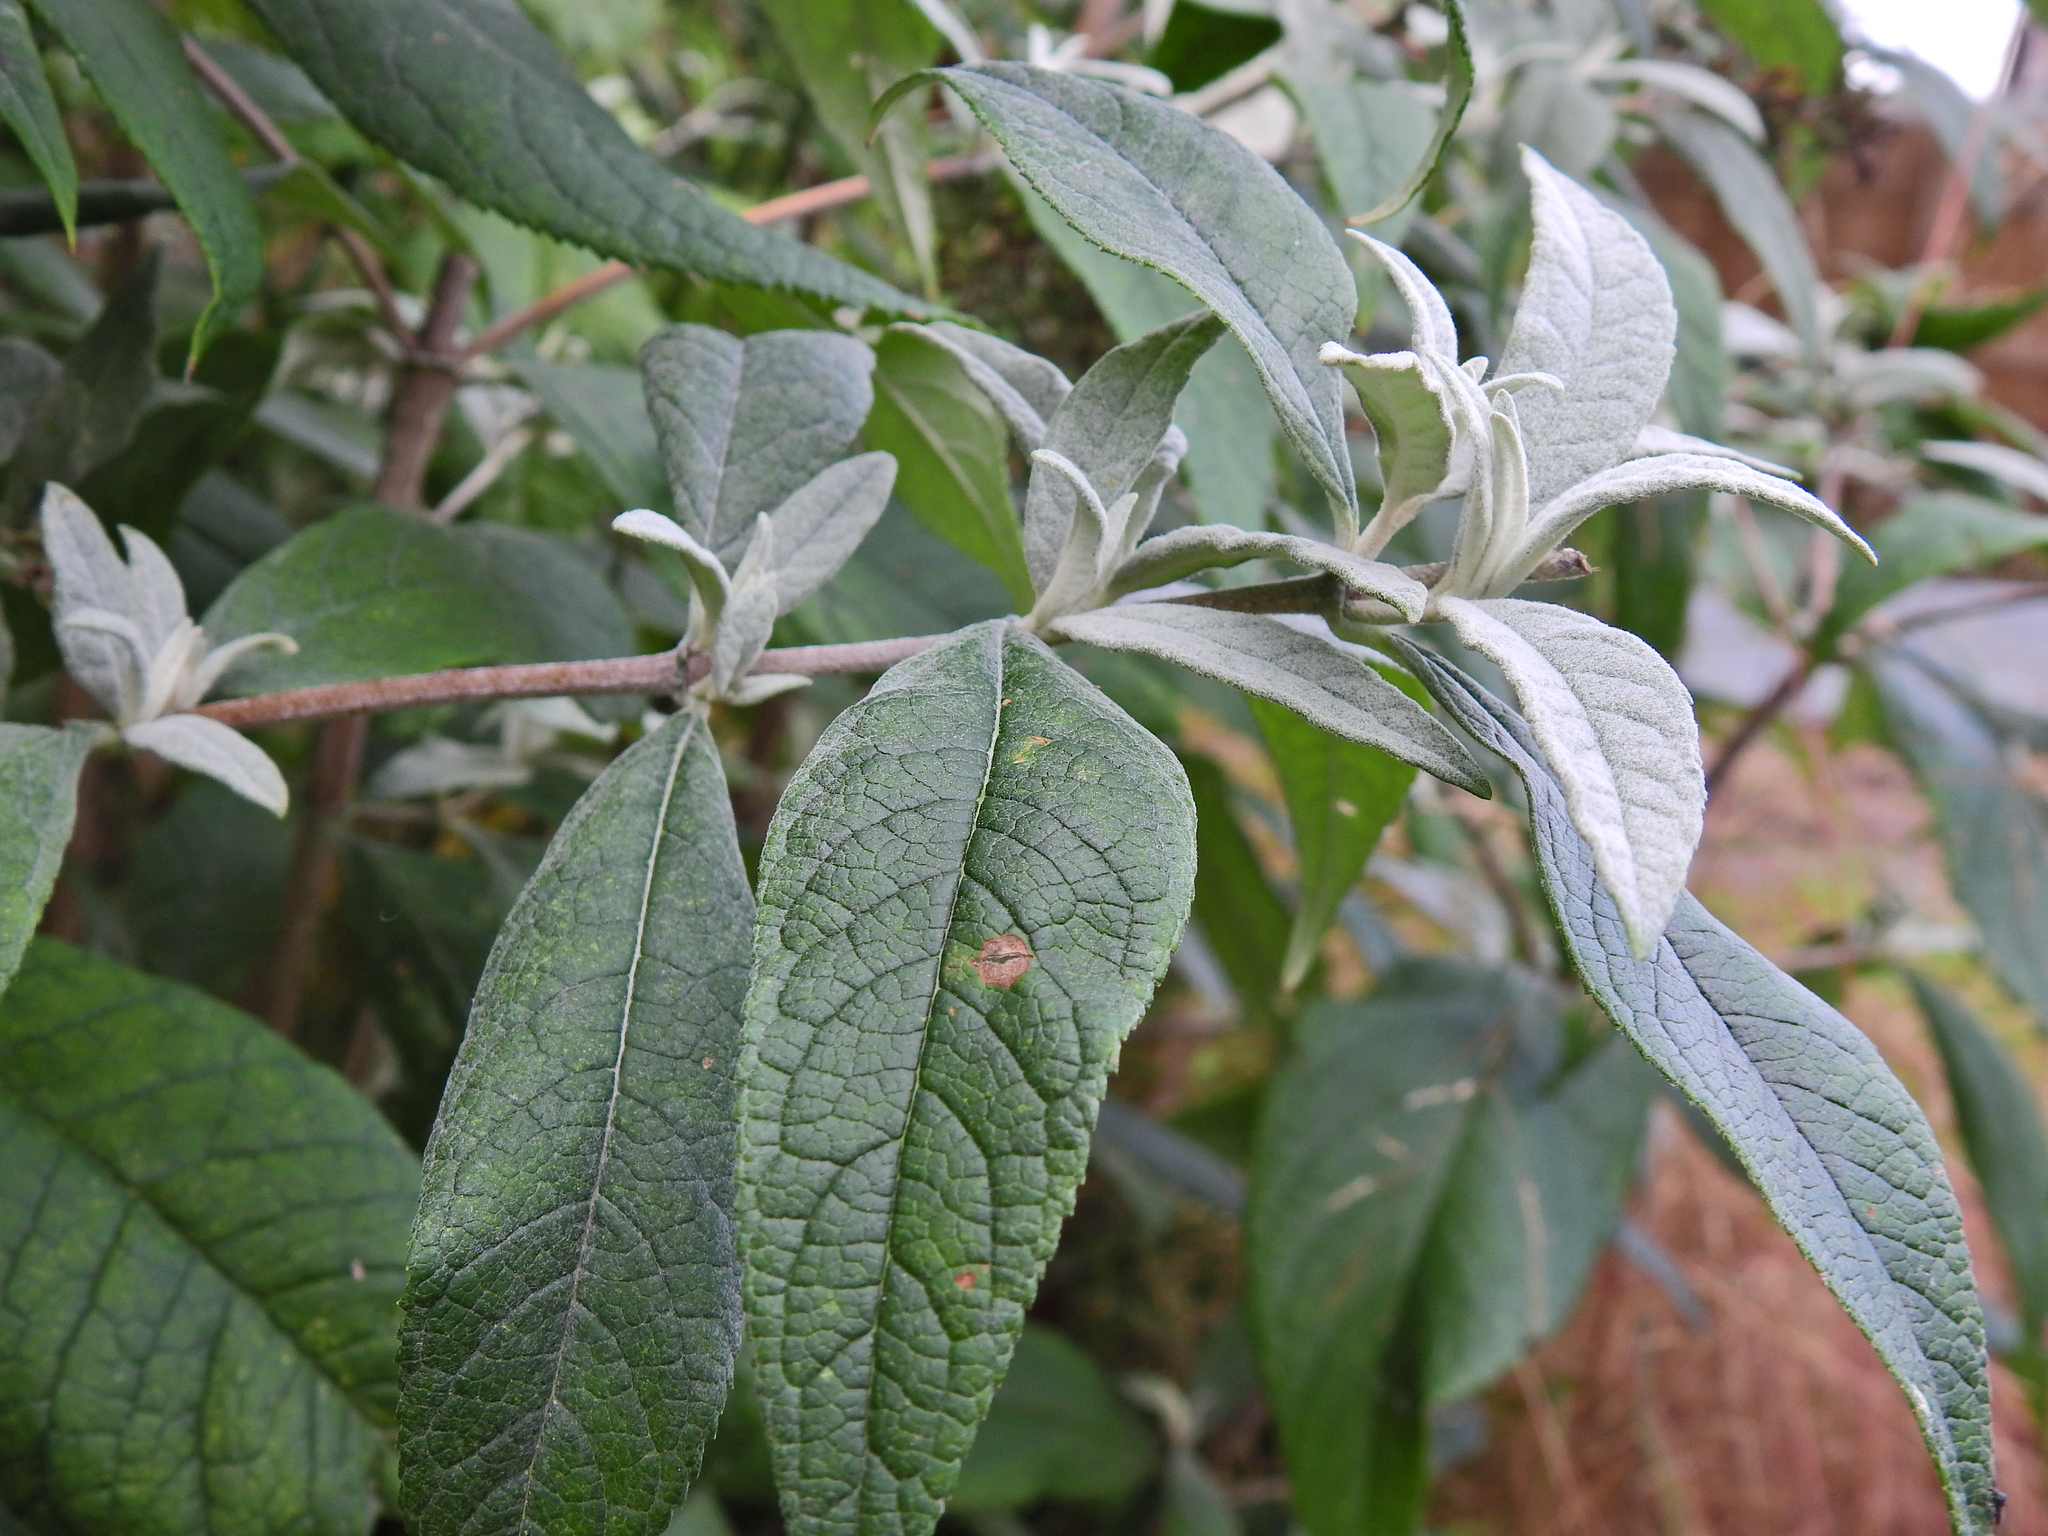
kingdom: Plantae
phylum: Tracheophyta
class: Magnoliopsida
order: Lamiales
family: Scrophulariaceae
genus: Buddleja
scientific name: Buddleja davidii
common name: Butterfly-bush
